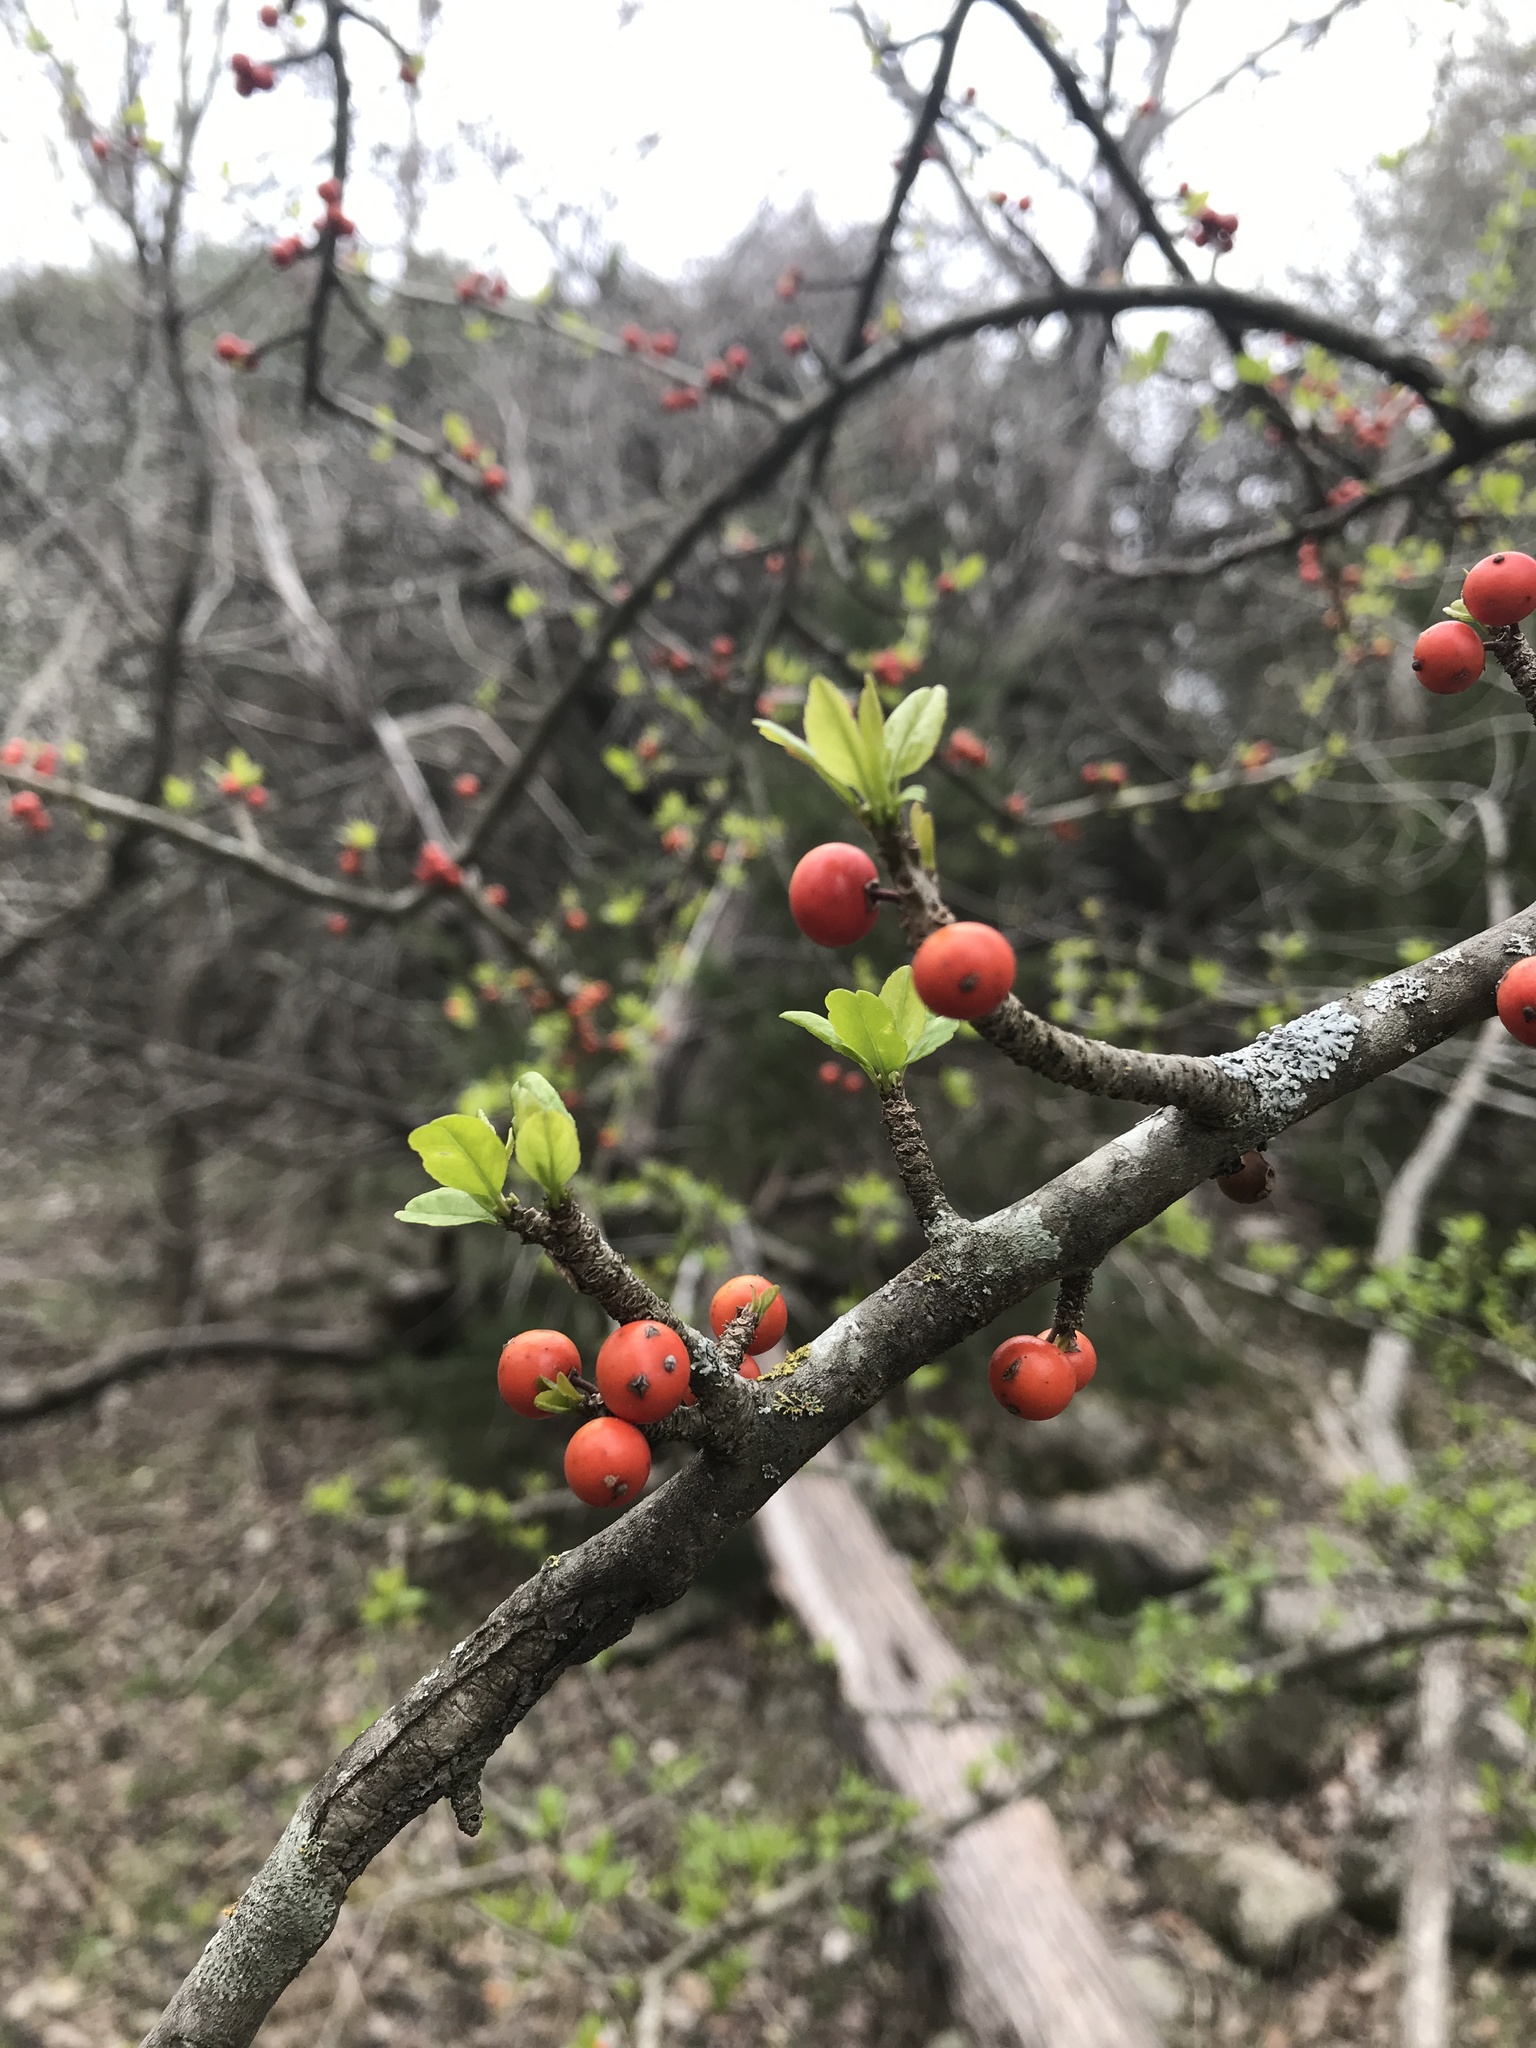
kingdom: Plantae
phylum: Tracheophyta
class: Magnoliopsida
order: Aquifoliales
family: Aquifoliaceae
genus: Ilex
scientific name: Ilex decidua
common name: Possum-haw
